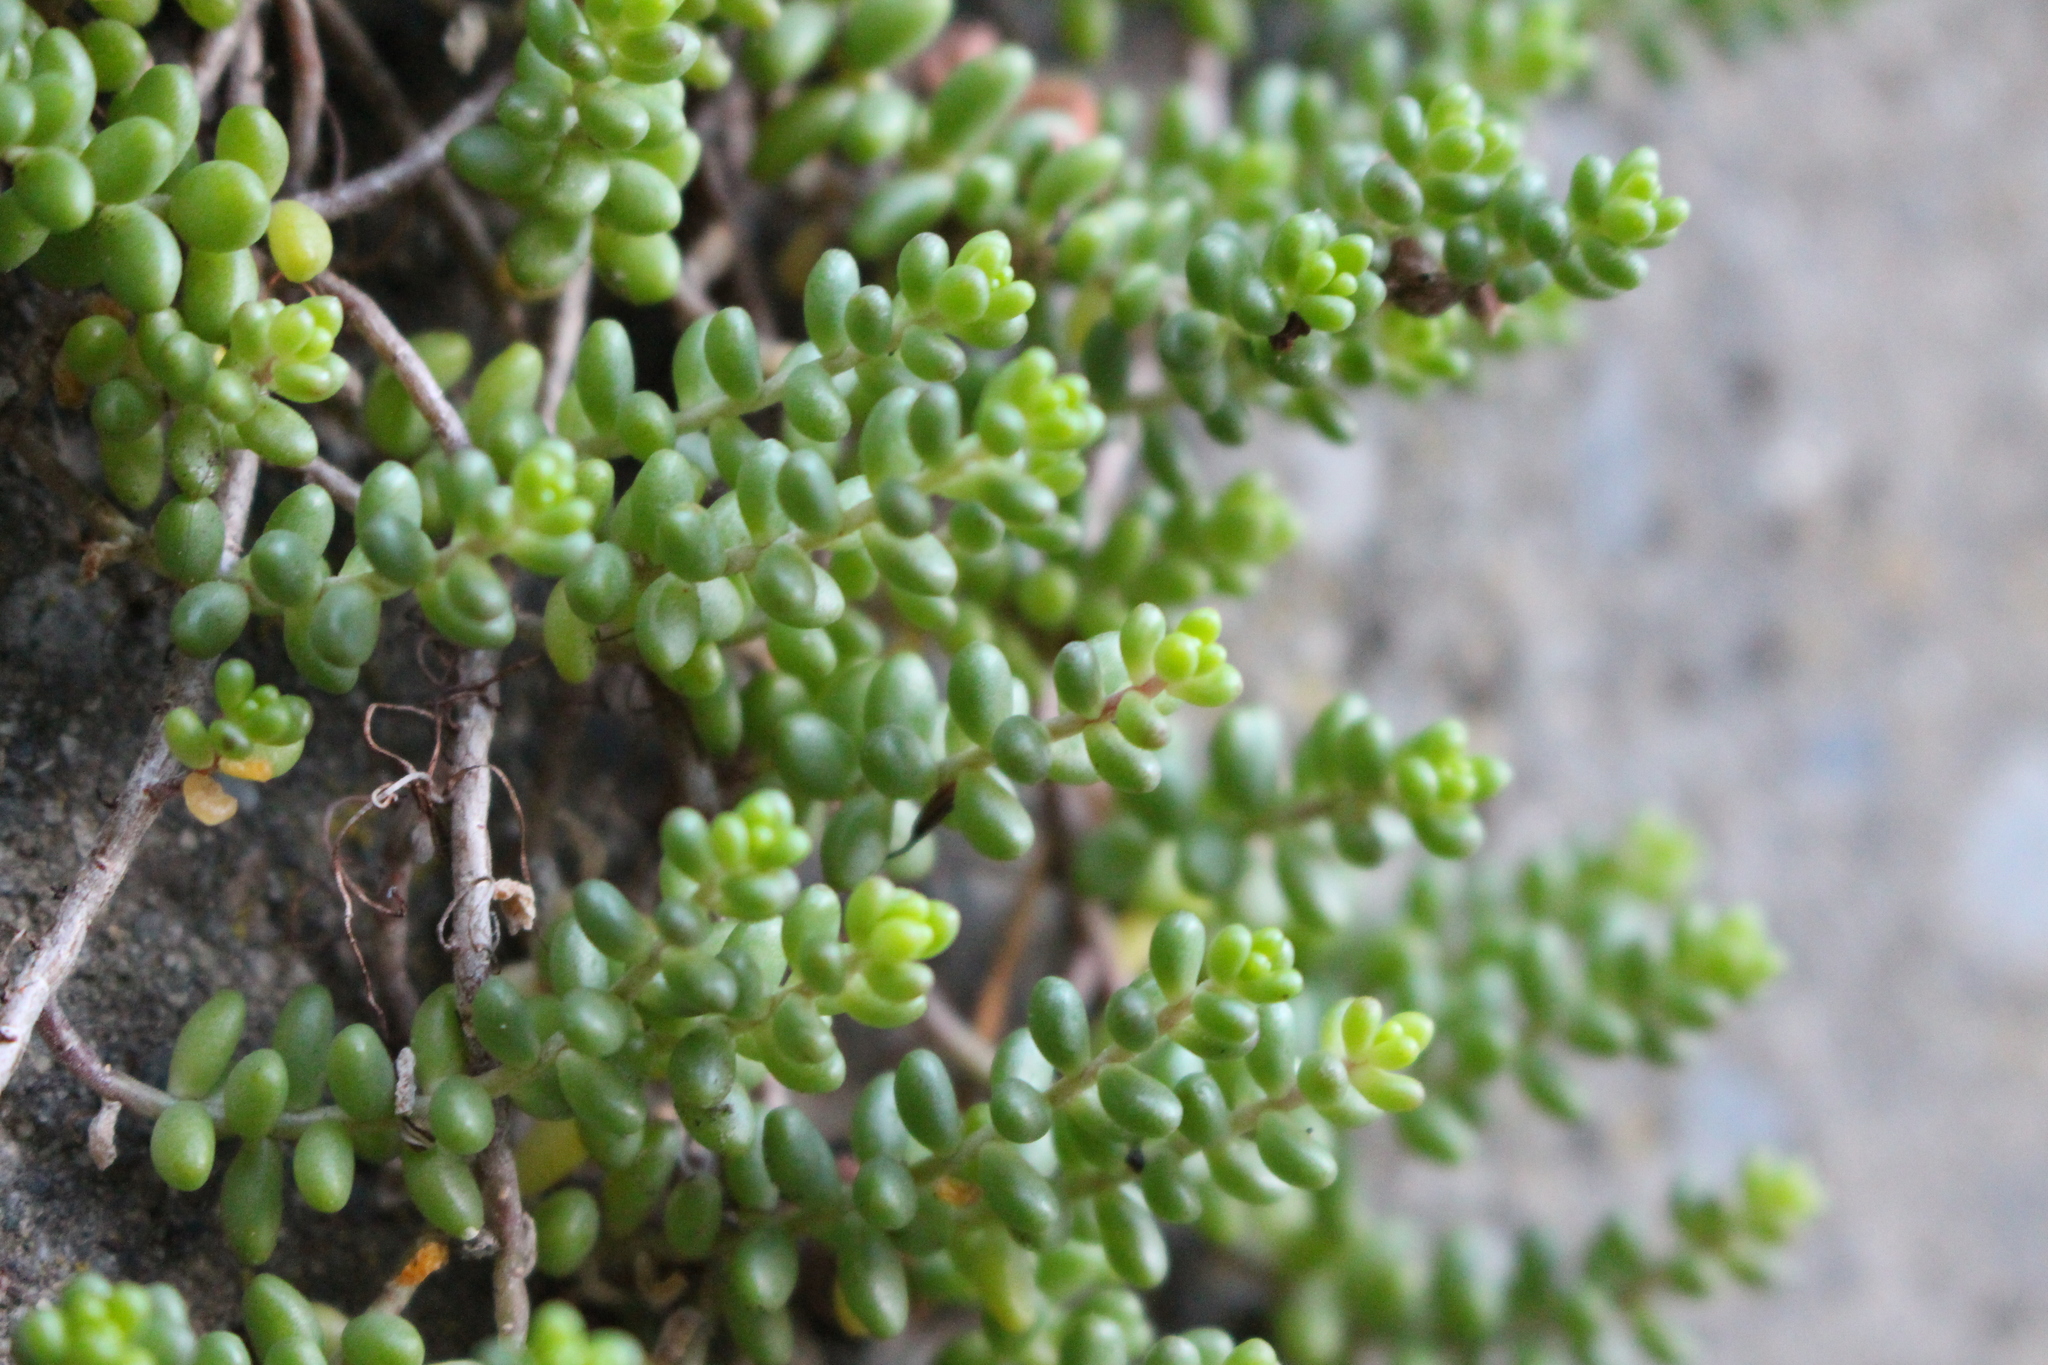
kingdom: Plantae
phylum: Tracheophyta
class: Magnoliopsida
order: Saxifragales
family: Crassulaceae
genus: Sedum
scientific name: Sedum album
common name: White stonecrop
